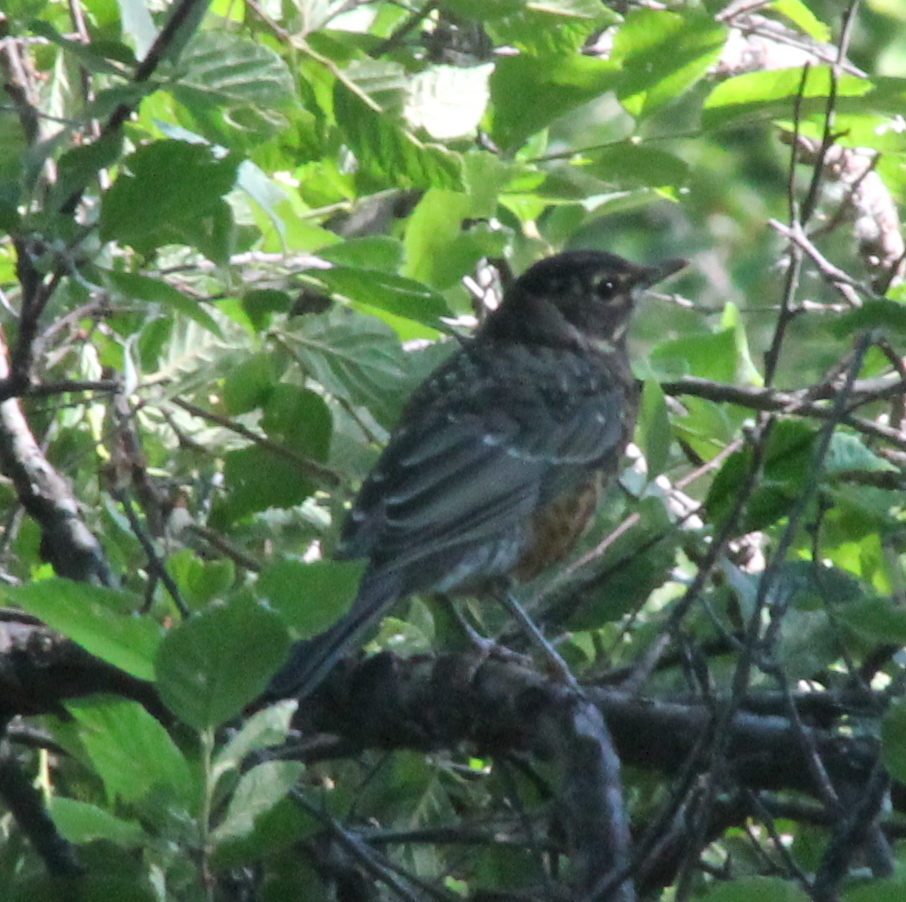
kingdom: Animalia
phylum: Chordata
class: Aves
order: Passeriformes
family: Turdidae
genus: Turdus
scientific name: Turdus migratorius
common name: American robin
